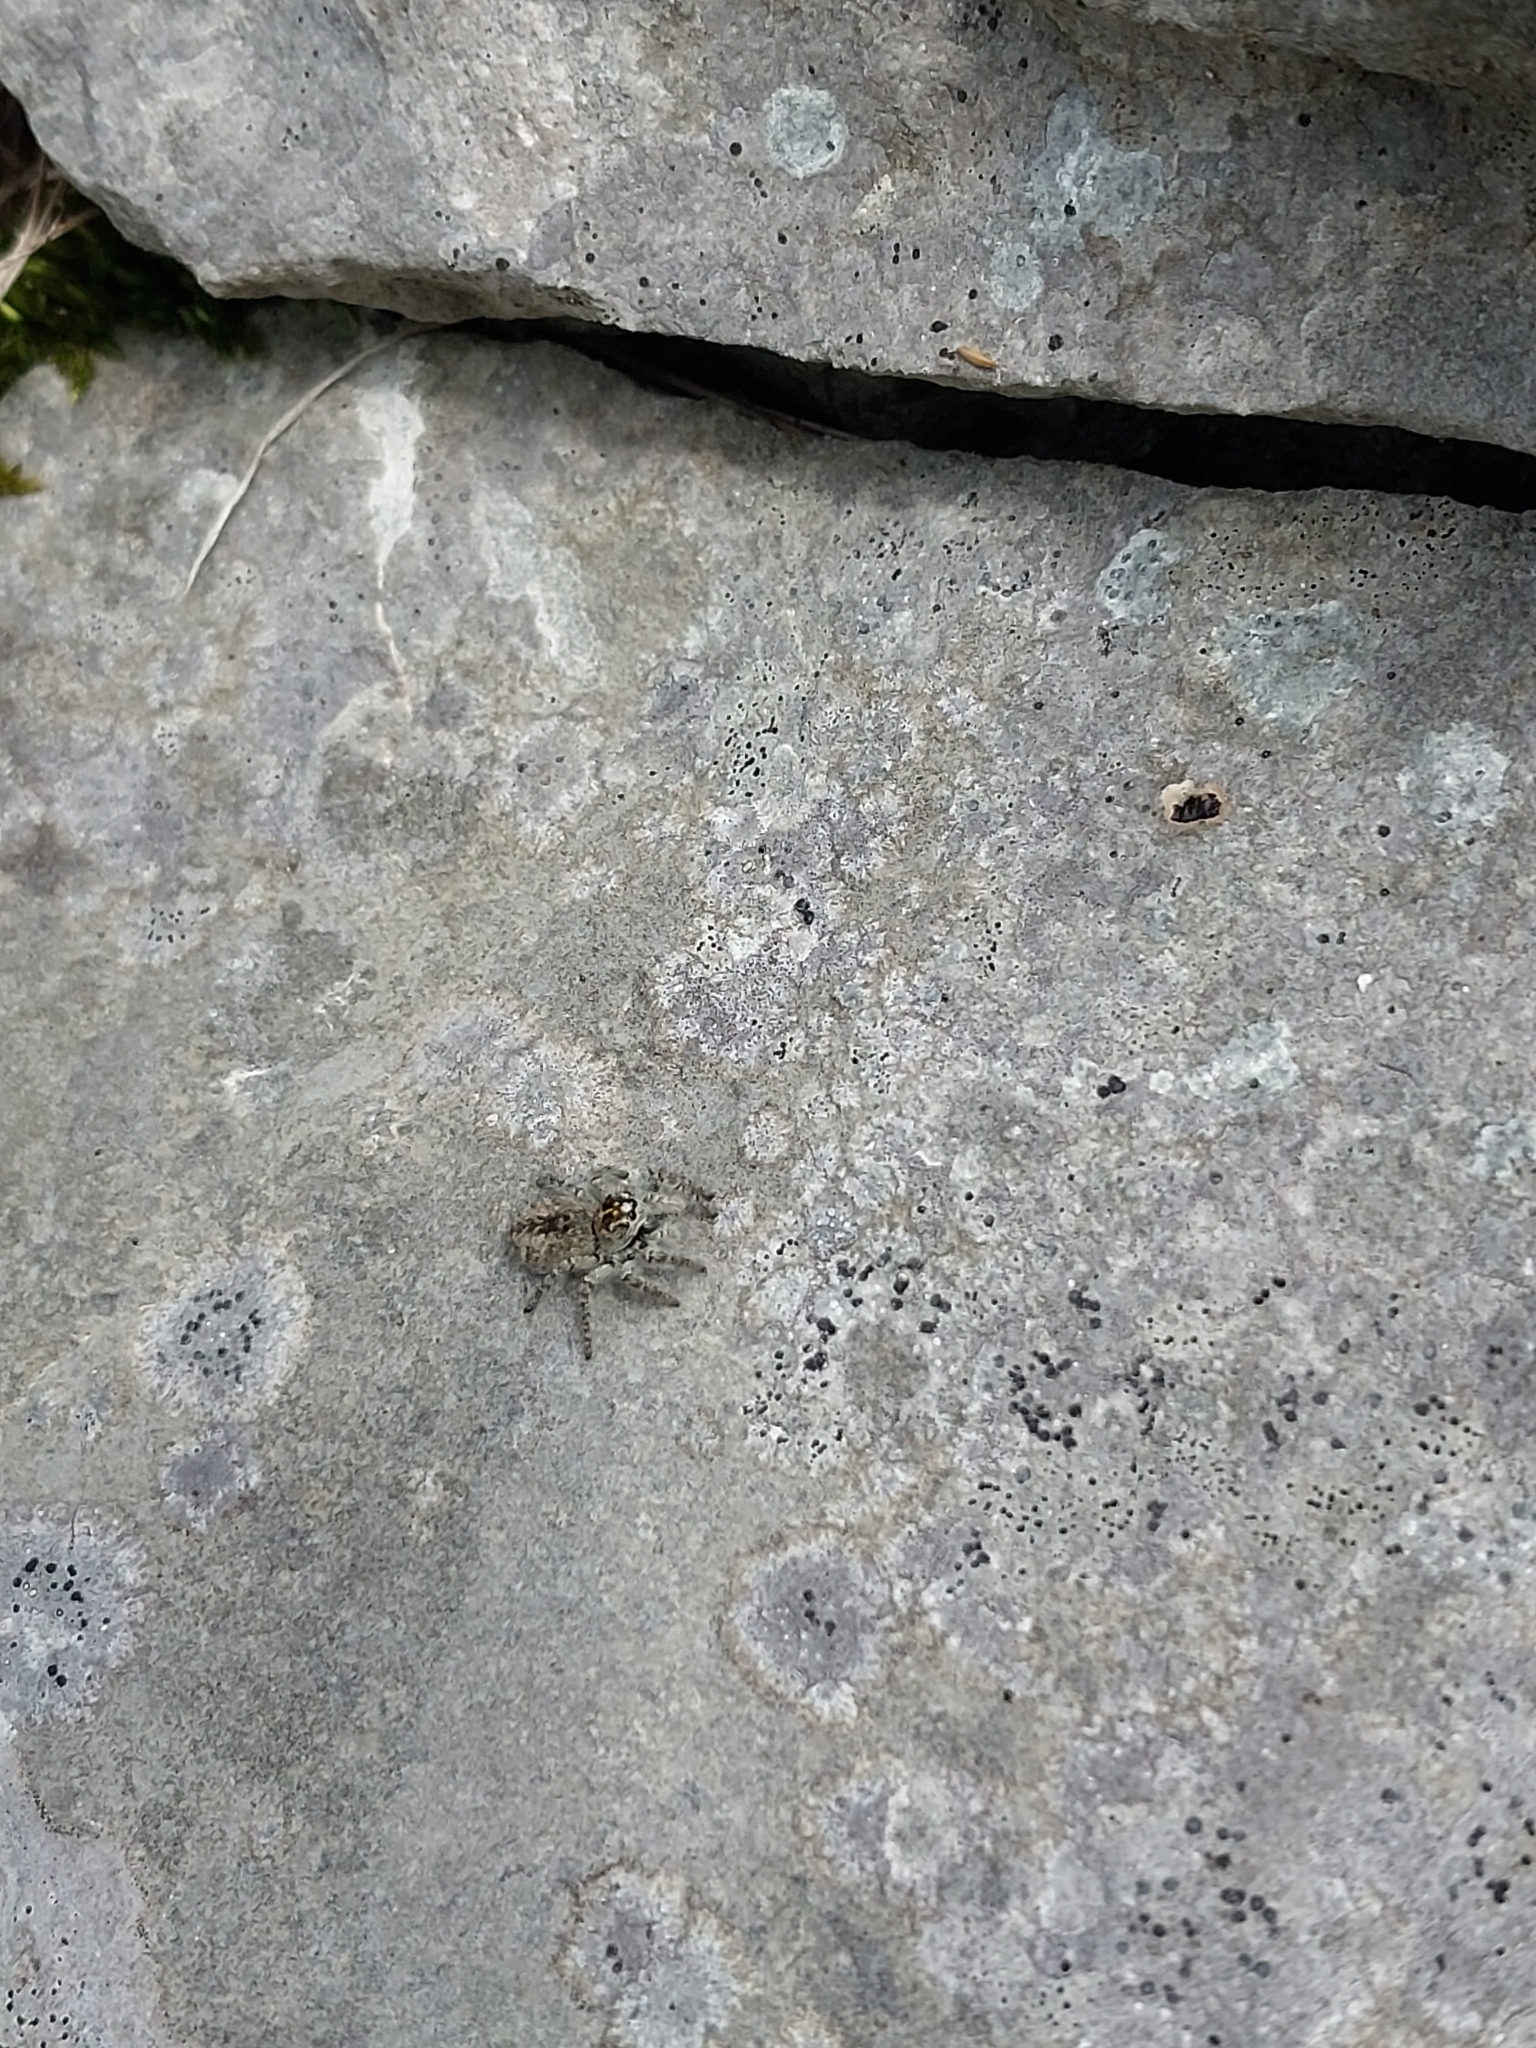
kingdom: Animalia
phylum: Arthropoda
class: Arachnida
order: Araneae
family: Salticidae
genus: Philaeus
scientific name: Philaeus chrysops
